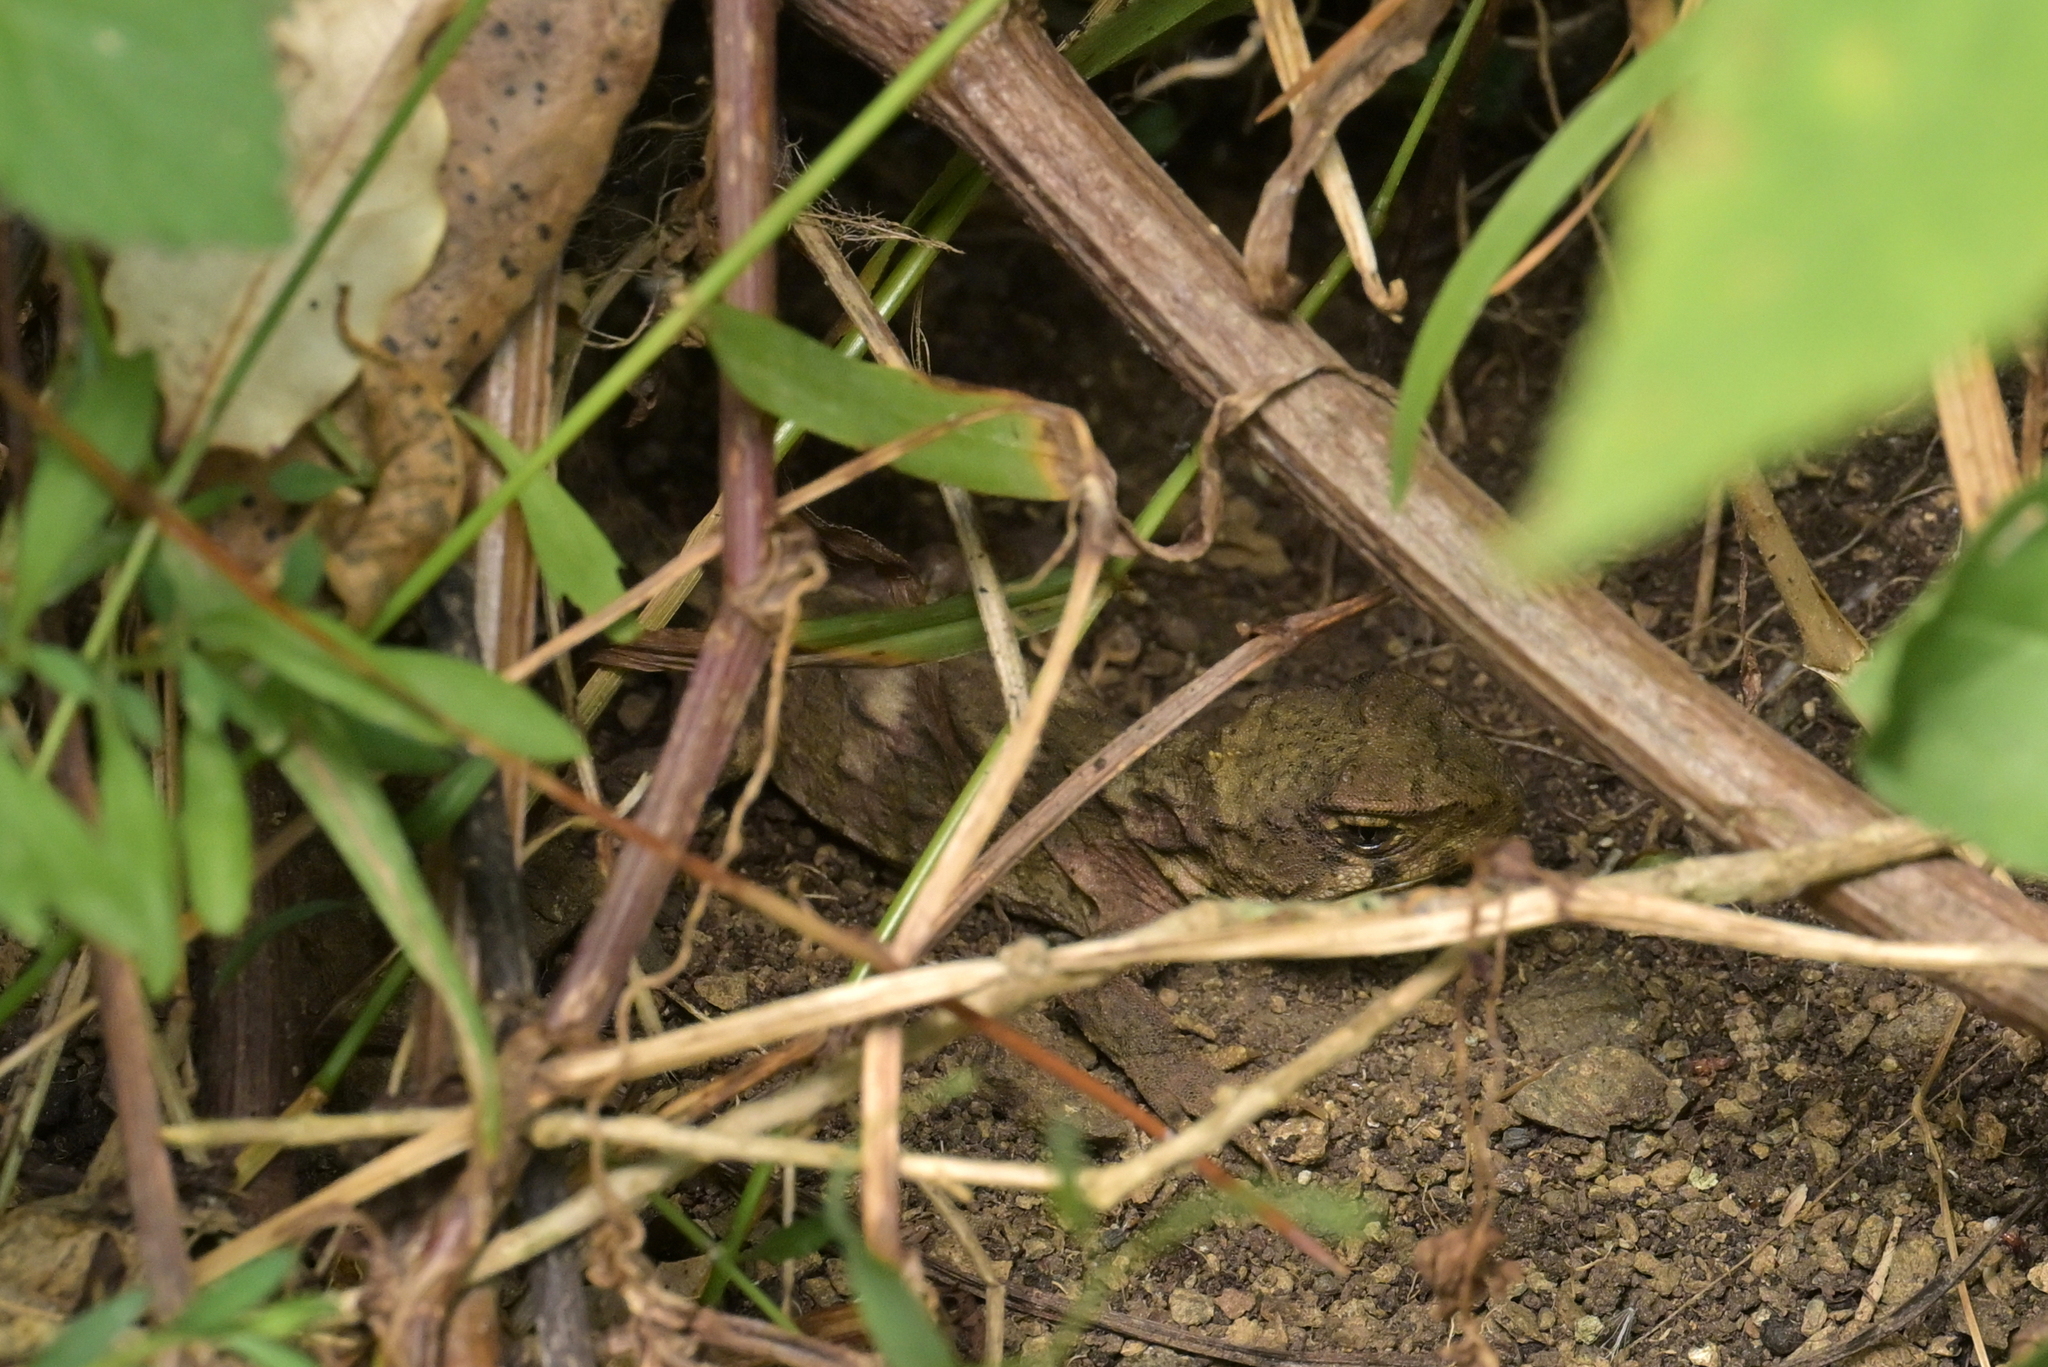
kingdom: Animalia
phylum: Chordata
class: Sphenodontia
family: Sphenodontidae
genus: Sphenodon
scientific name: Sphenodon punctatus
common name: Tuatara
